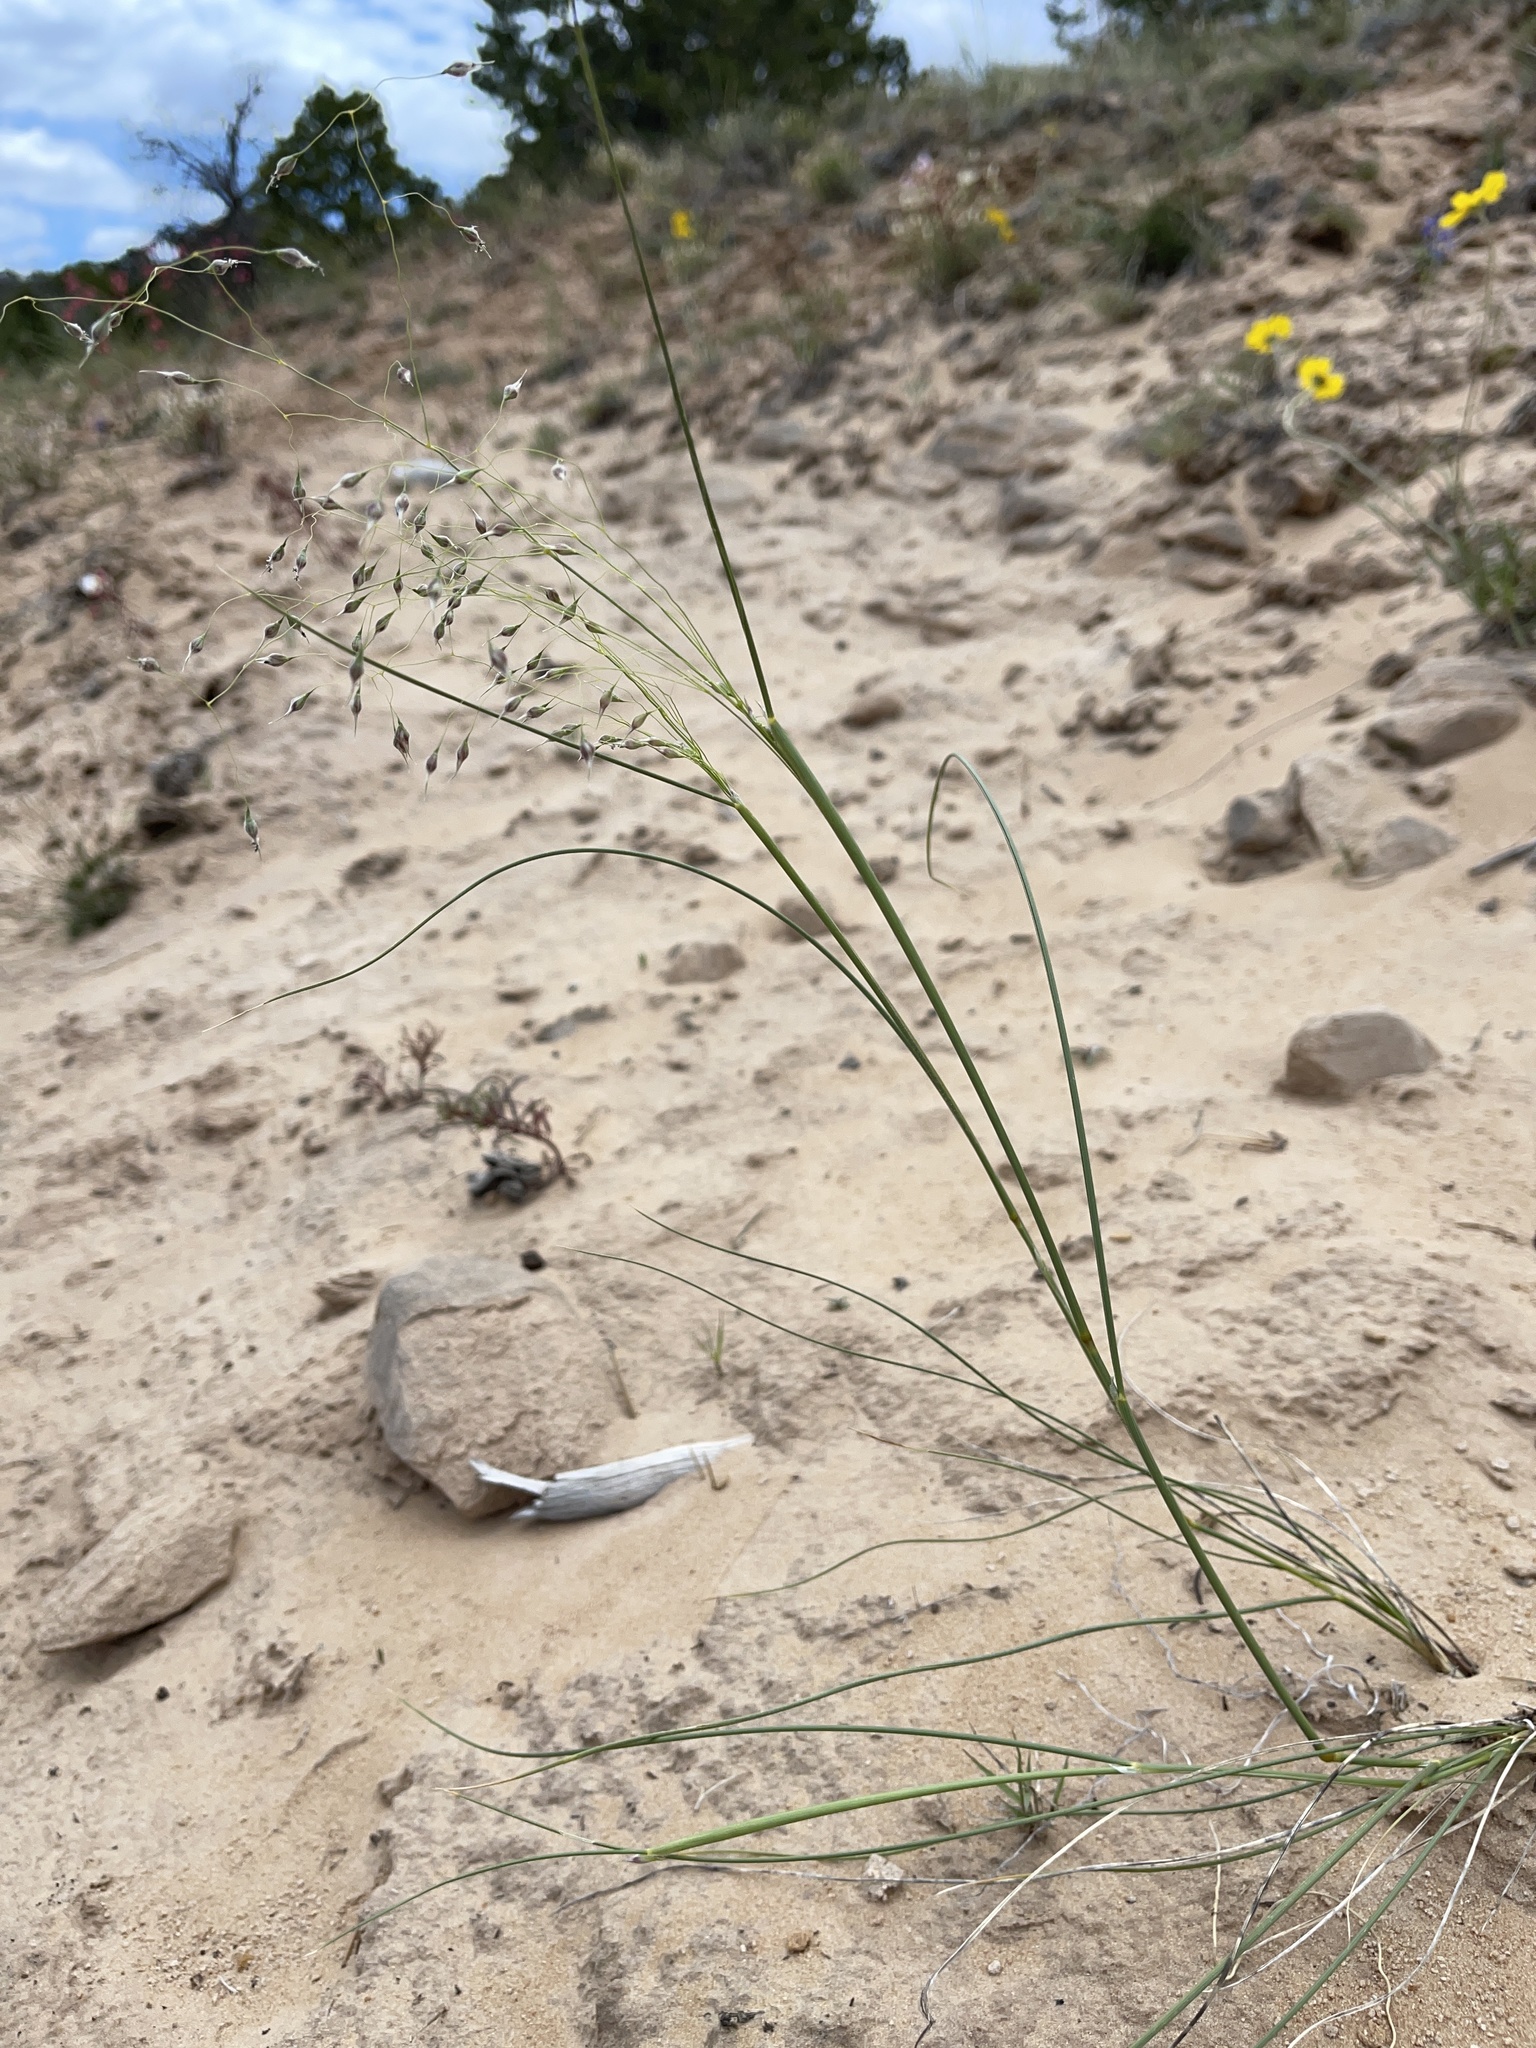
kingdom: Plantae
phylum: Tracheophyta
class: Liliopsida
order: Poales
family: Poaceae
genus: Eriocoma
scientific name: Eriocoma hymenoides
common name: Indian mountain ricegrass
